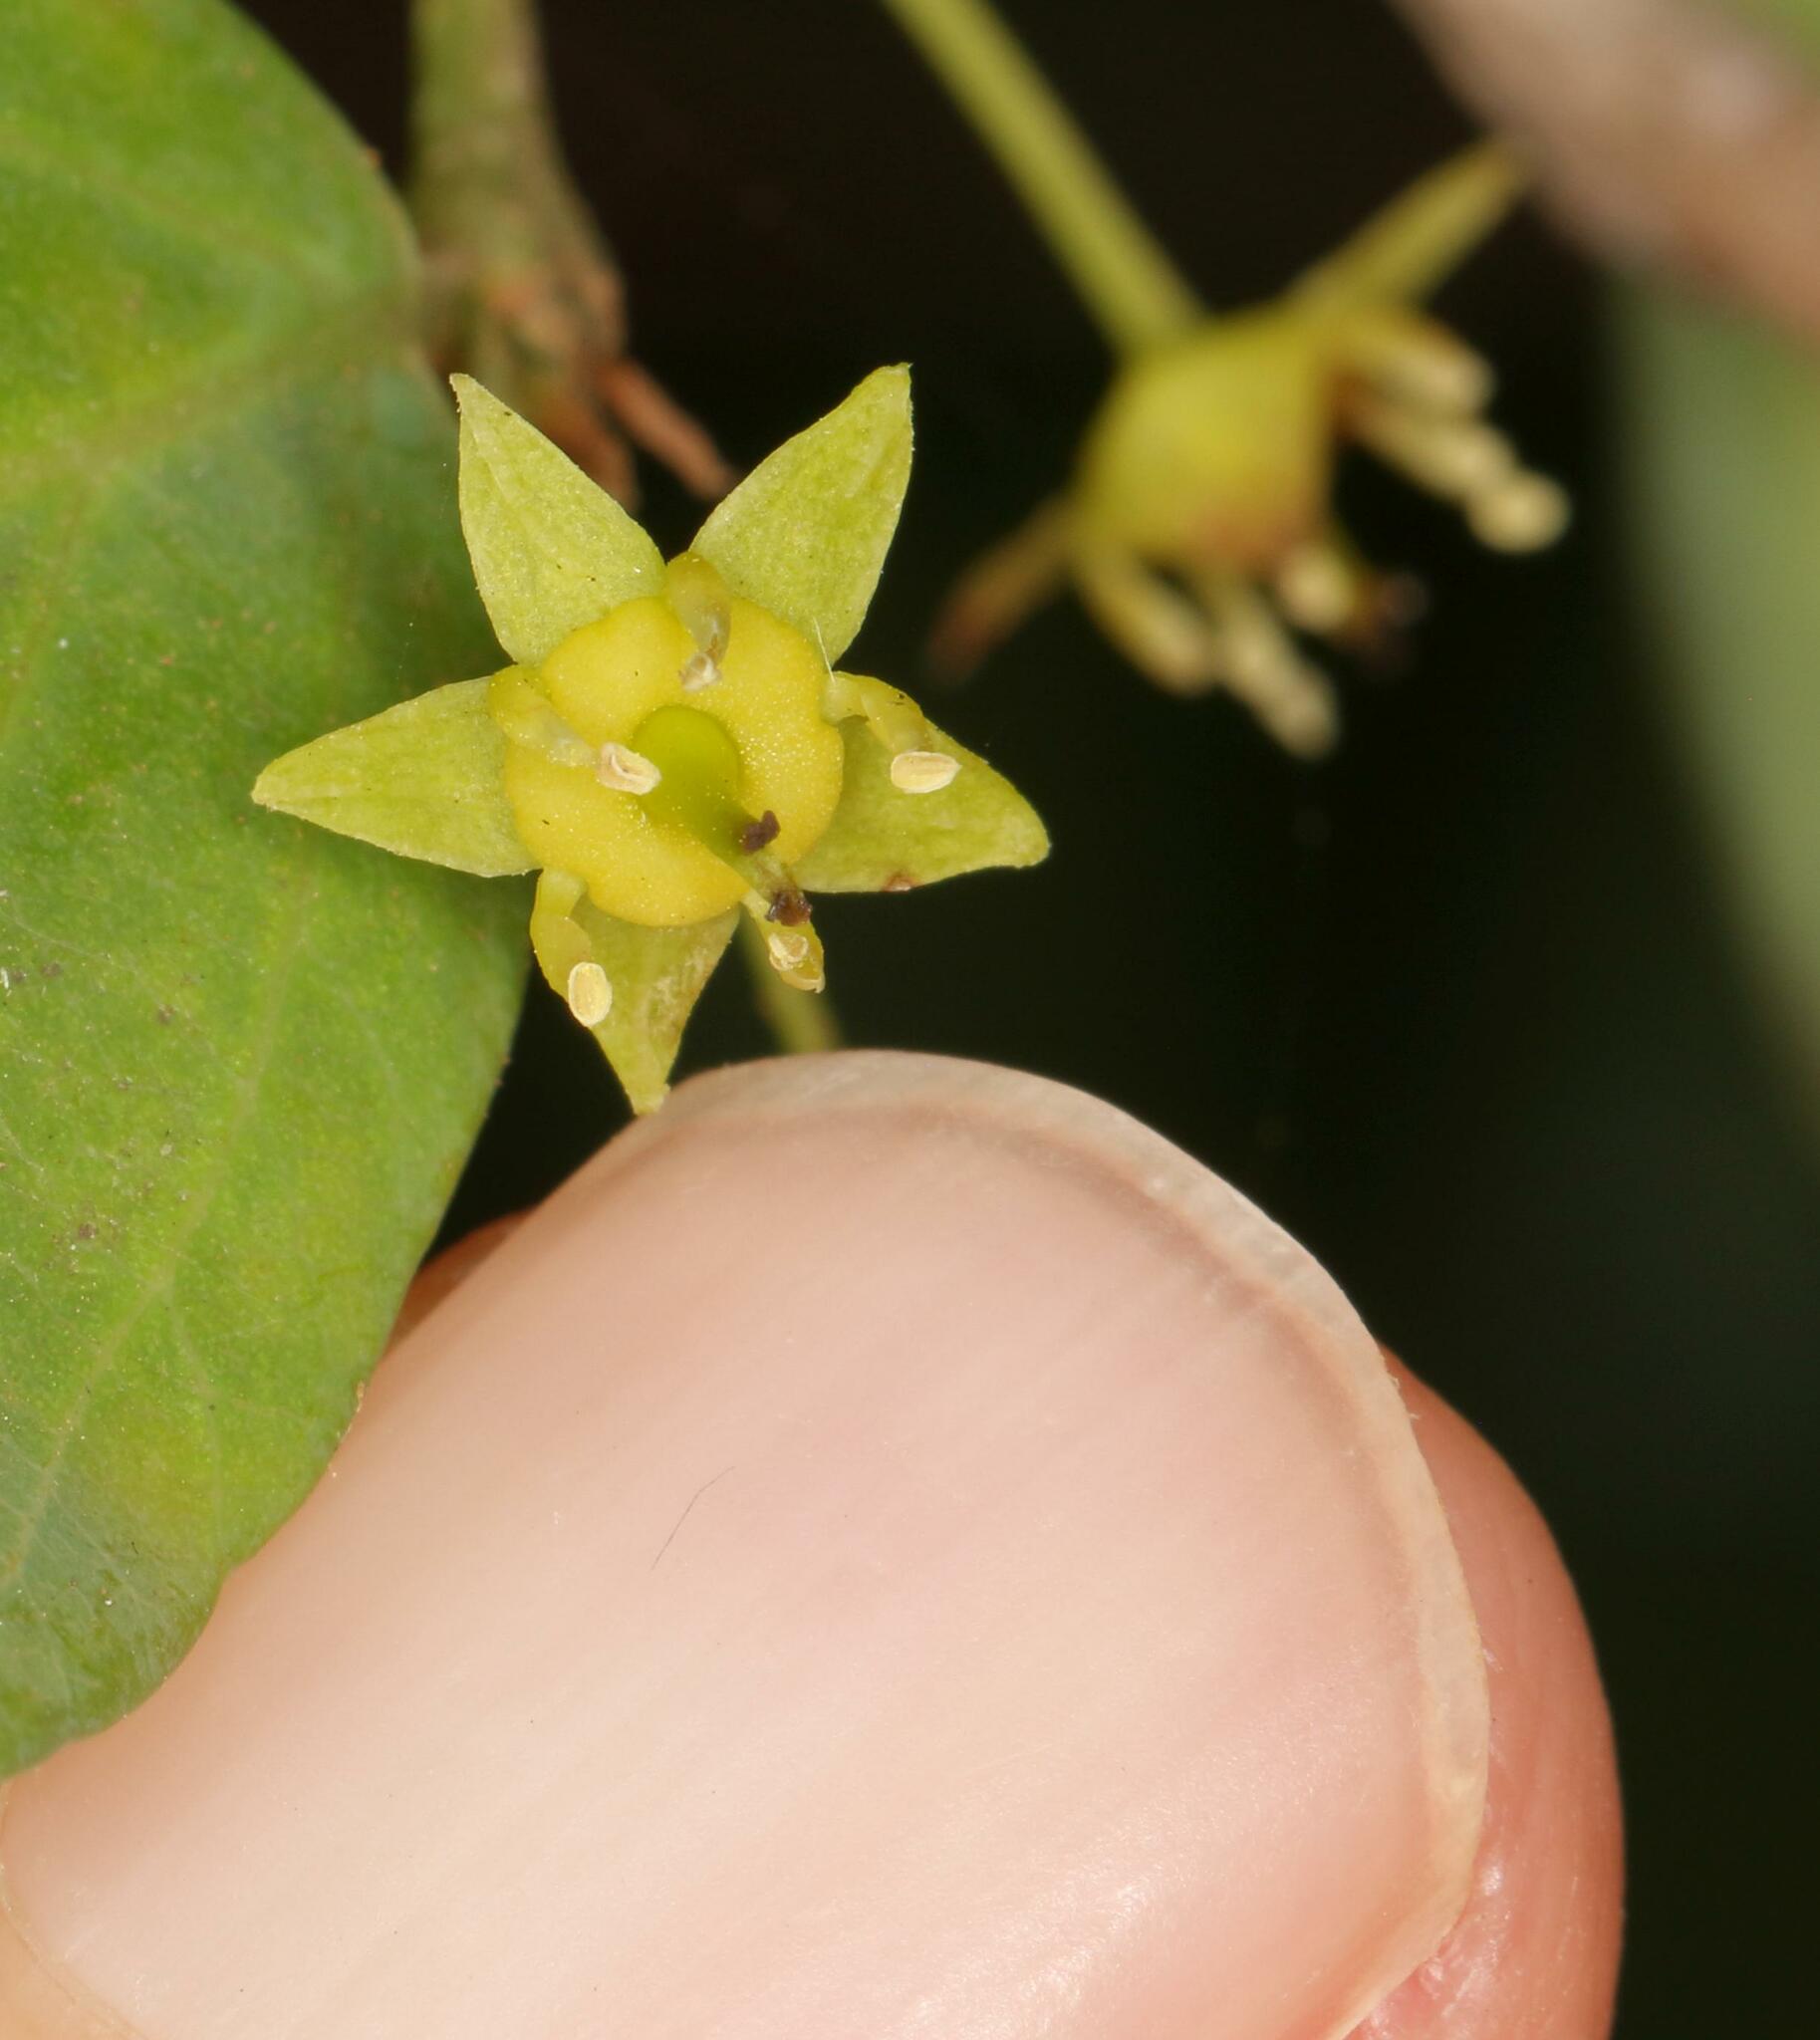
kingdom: Plantae
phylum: Tracheophyta
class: Magnoliopsida
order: Rosales
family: Rhamnaceae
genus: Phyllogeiton
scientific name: Phyllogeiton zeyheri
